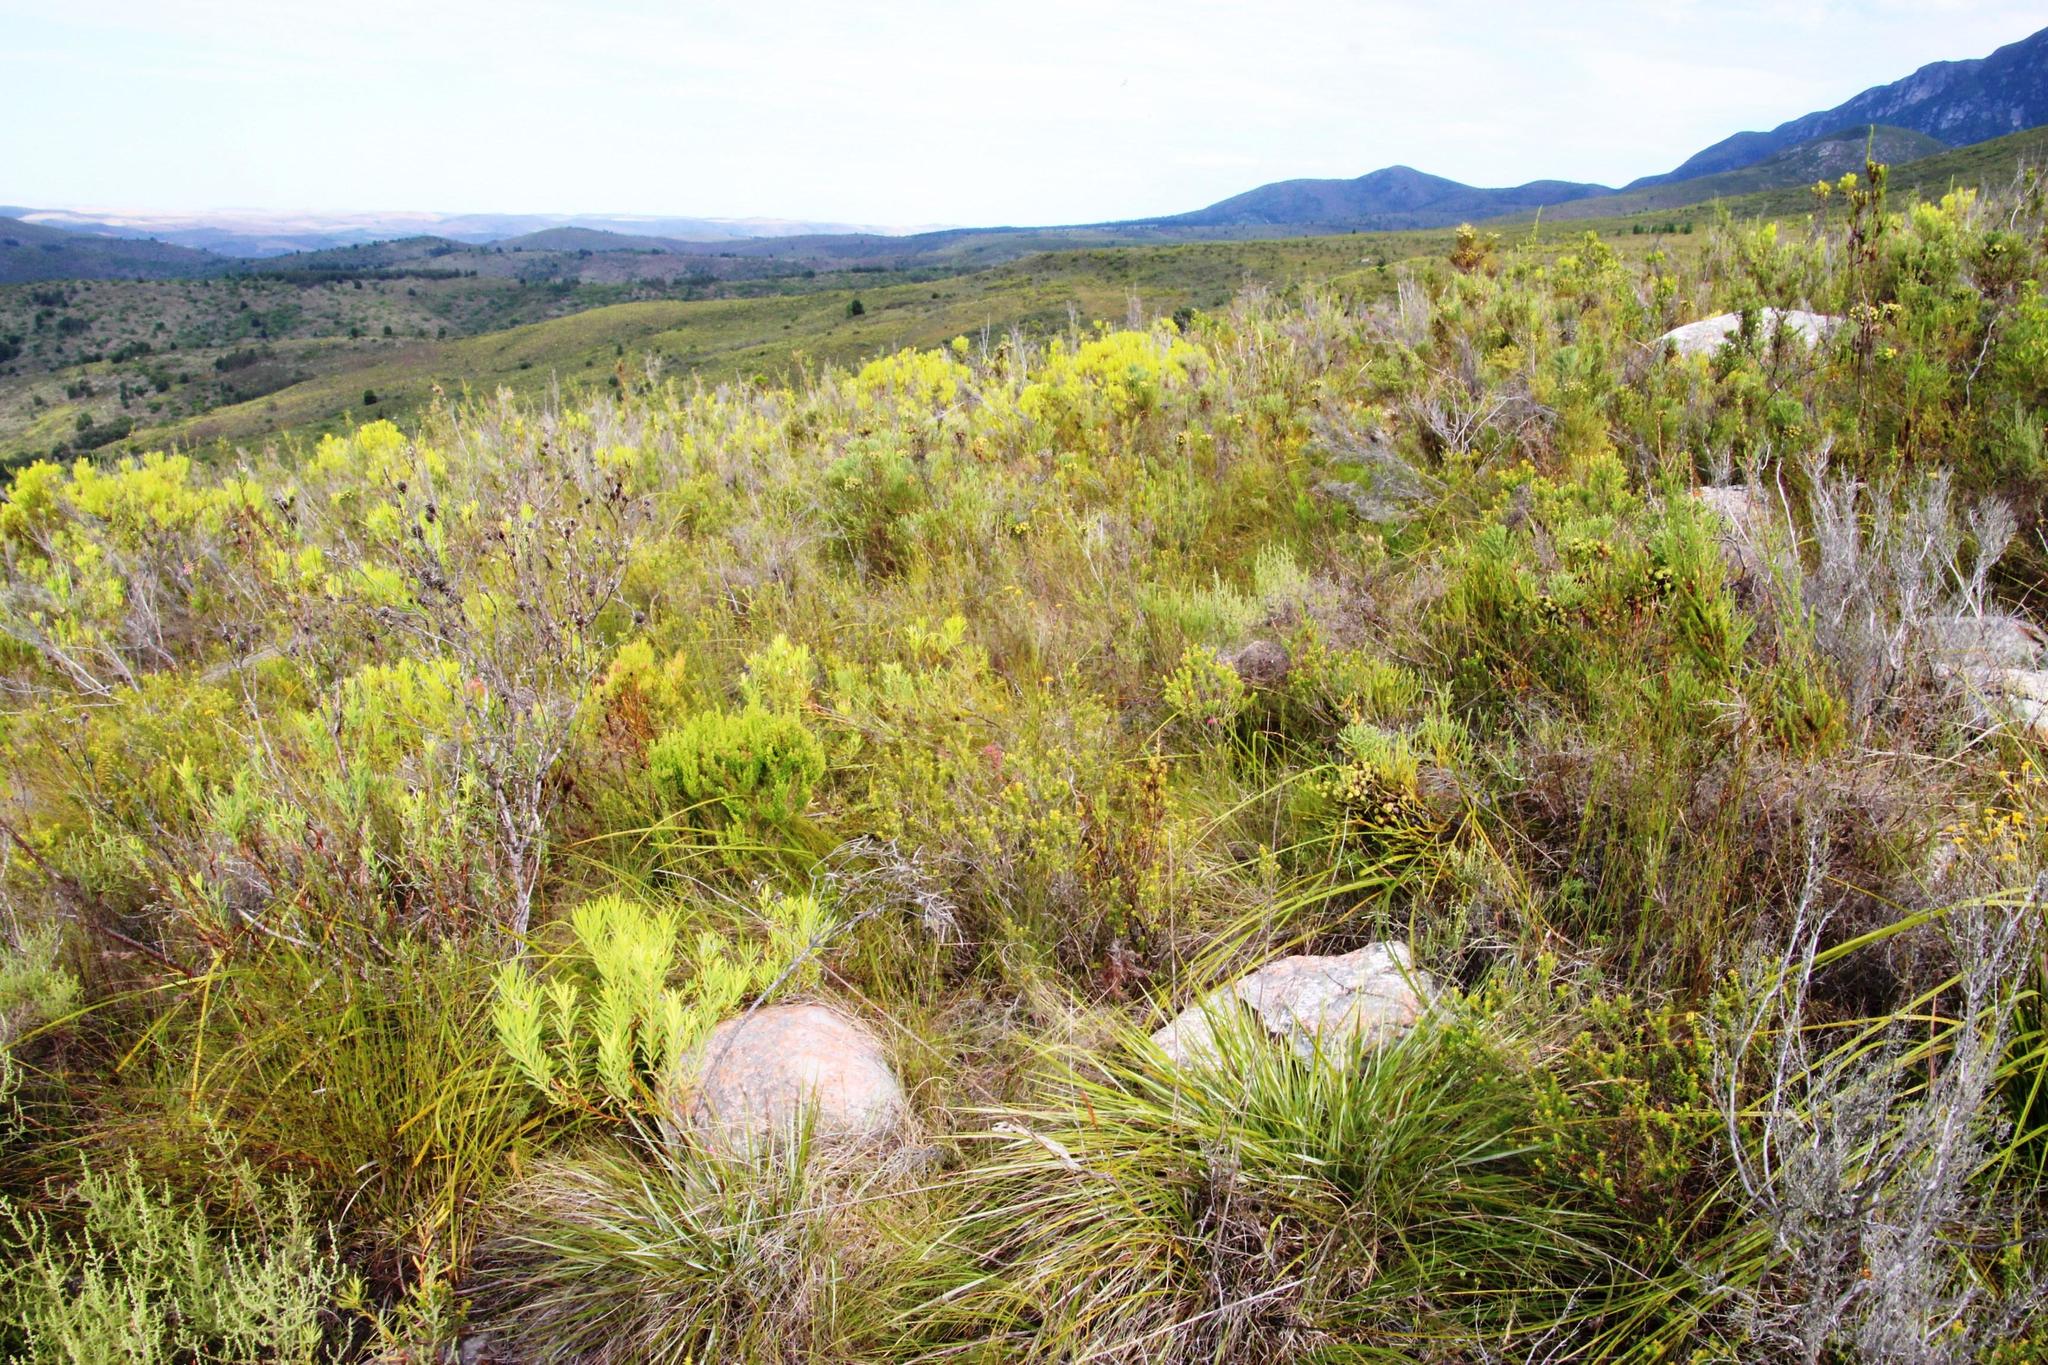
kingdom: Plantae
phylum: Tracheophyta
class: Magnoliopsida
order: Myrtales
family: Penaeaceae
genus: Penaea
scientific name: Penaea mucronata
